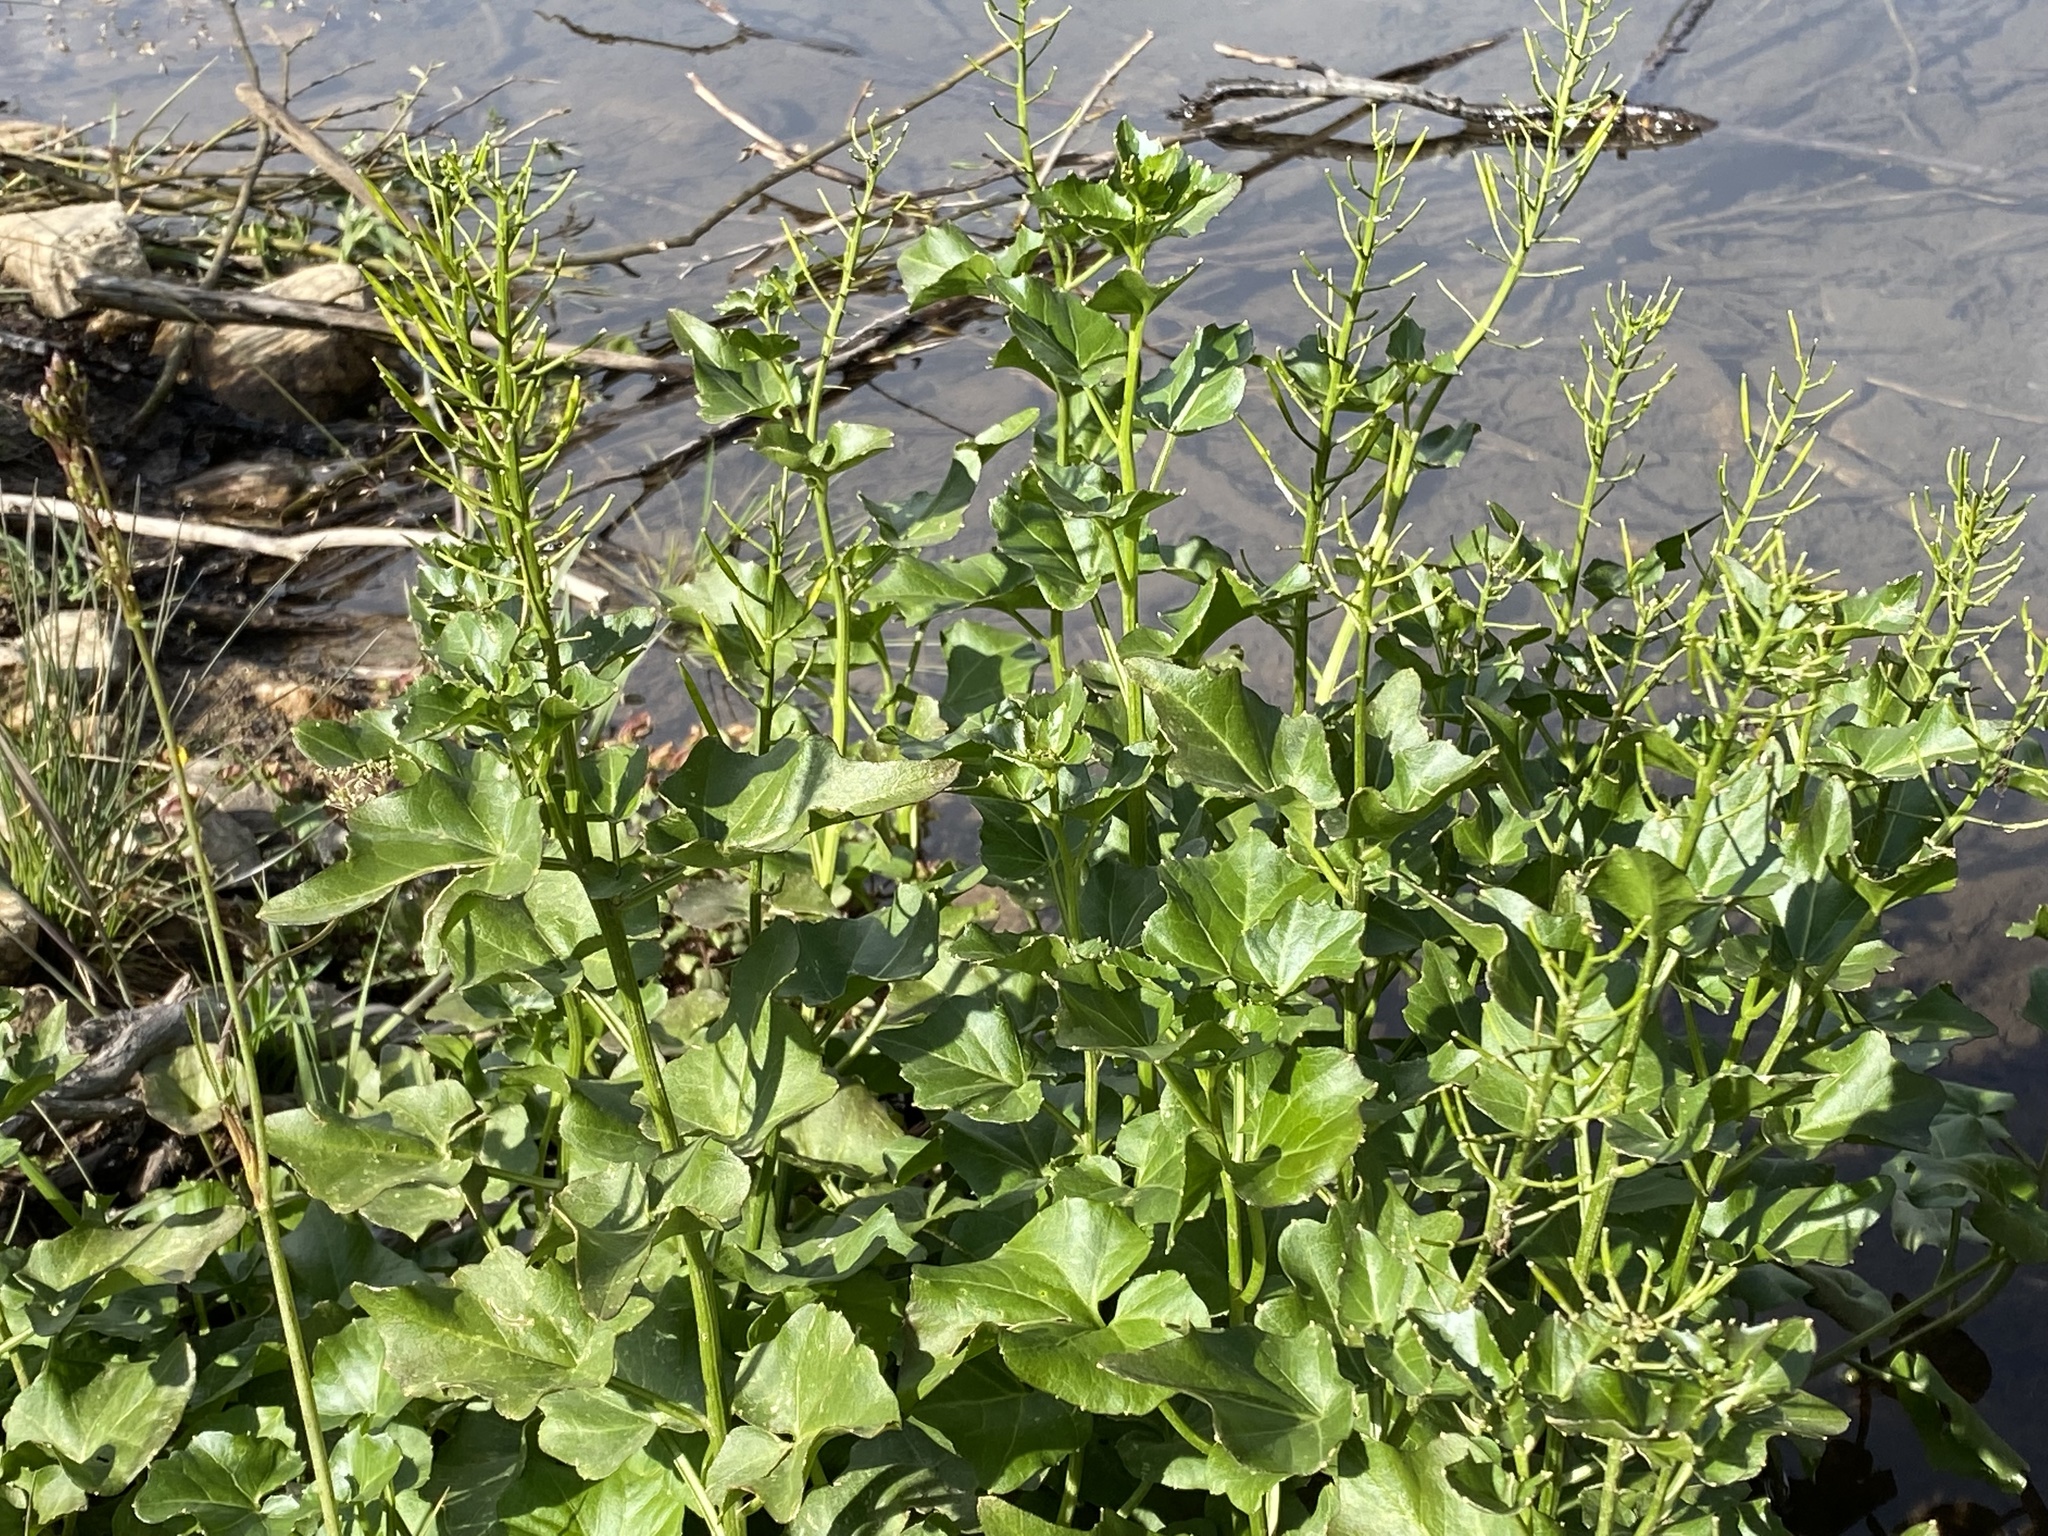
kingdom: Plantae
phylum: Tracheophyta
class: Magnoliopsida
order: Brassicales
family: Brassicaceae
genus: Cardamine
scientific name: Cardamine cordifolia
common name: Heart-leaf bittercress
